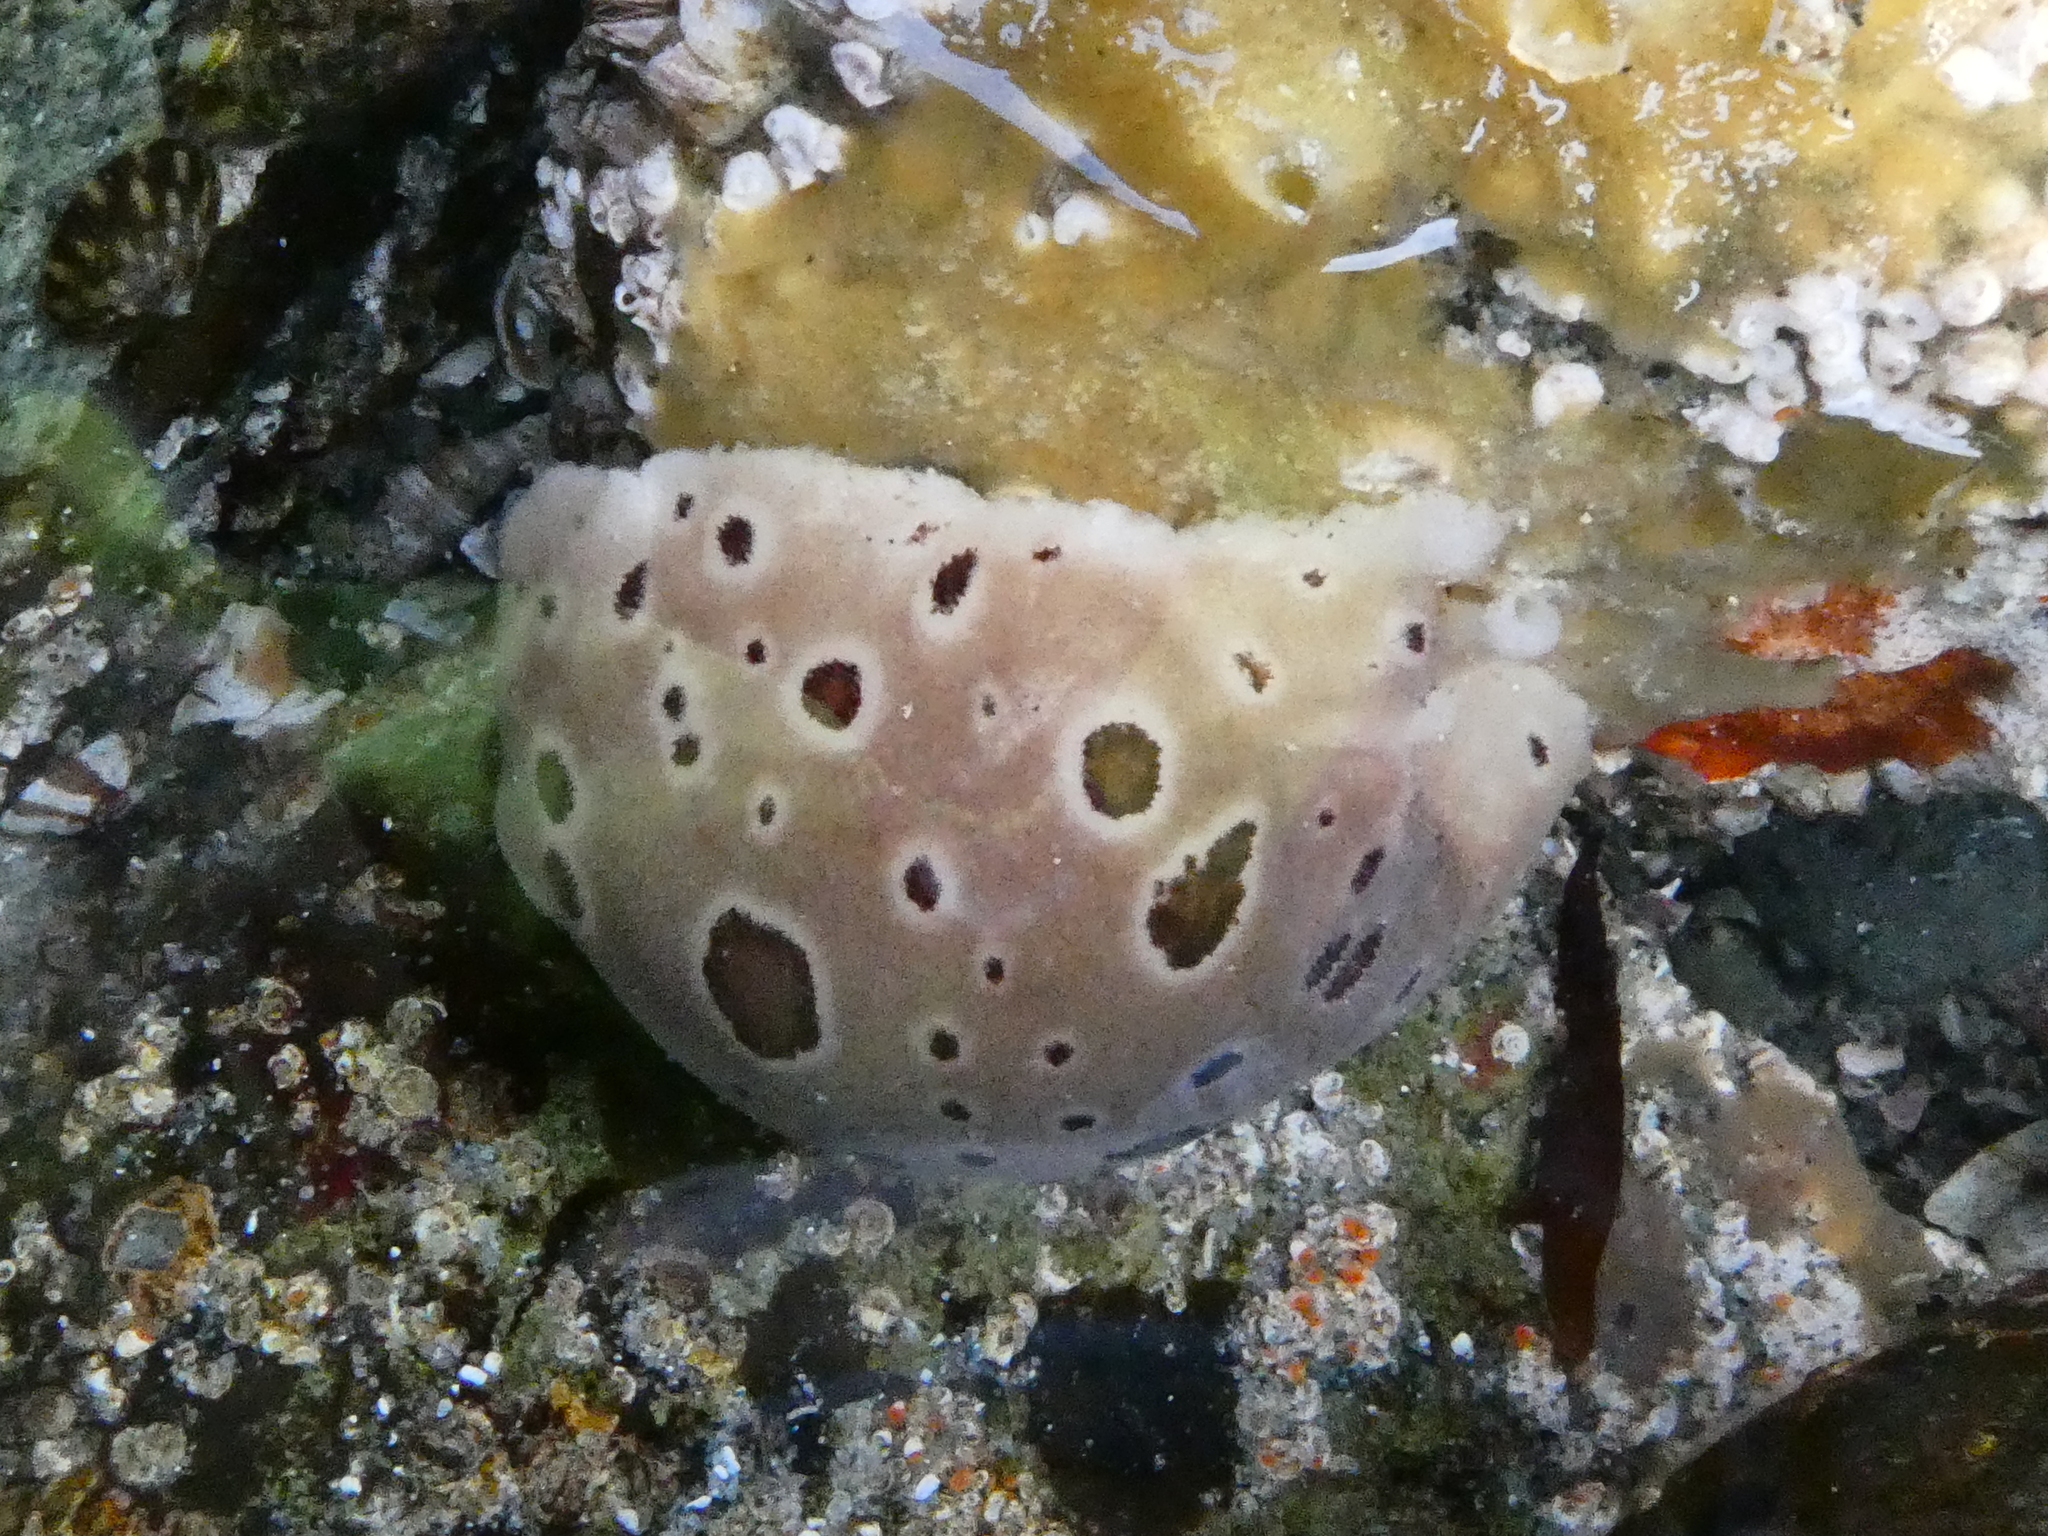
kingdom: Animalia
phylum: Mollusca
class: Gastropoda
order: Nudibranchia
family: Discodorididae
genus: Diaulula
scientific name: Diaulula odonoghuei
